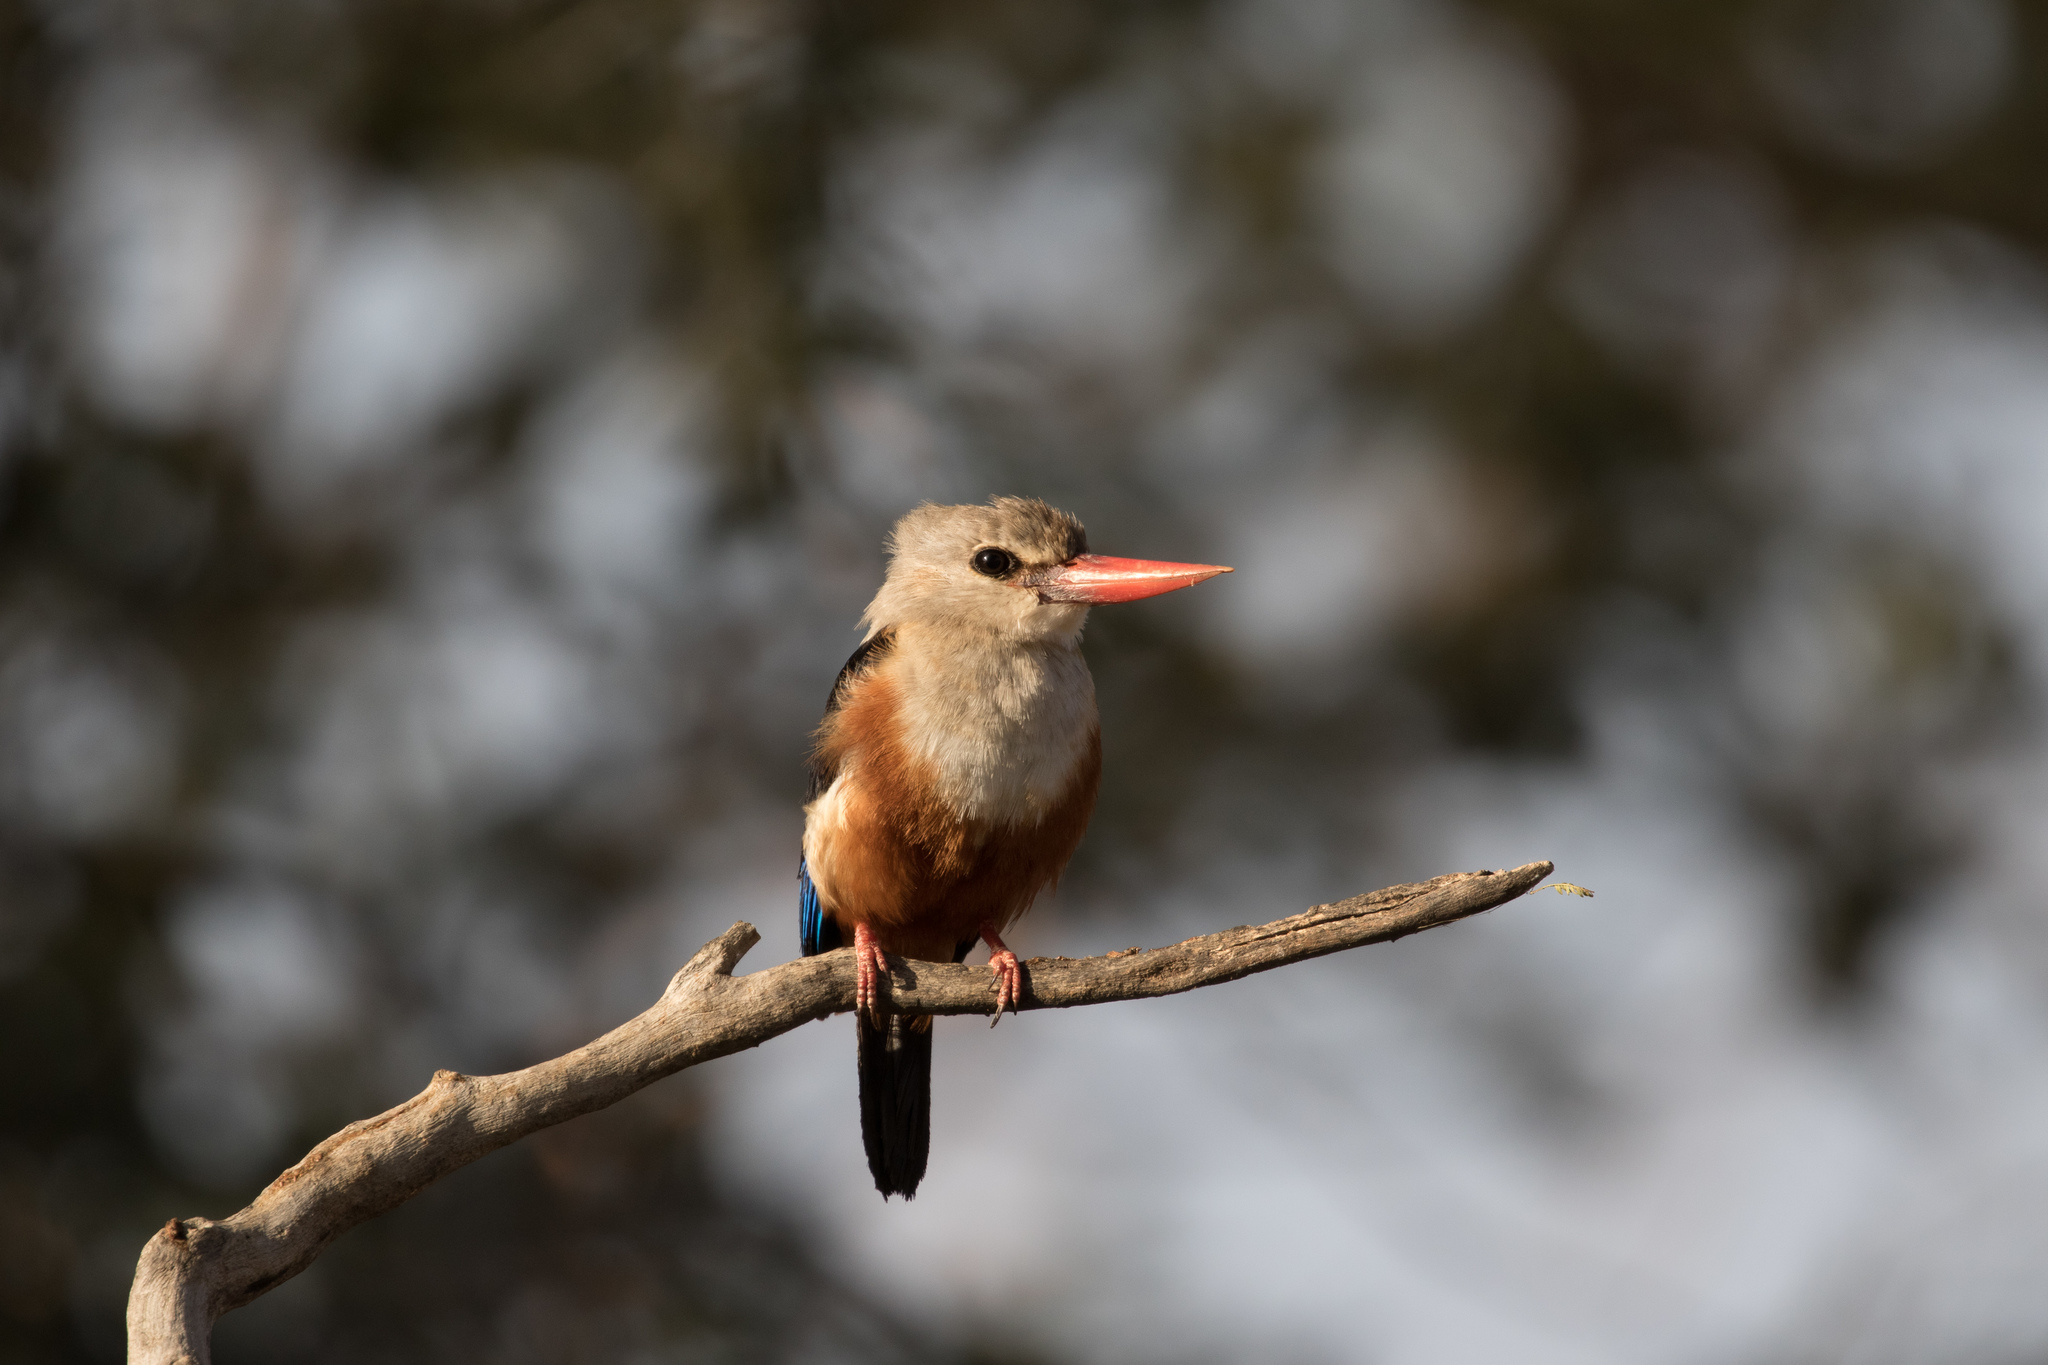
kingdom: Animalia
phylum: Chordata
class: Aves
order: Coraciiformes
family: Alcedinidae
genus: Halcyon
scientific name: Halcyon leucocephala
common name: Grey-headed kingfisher
